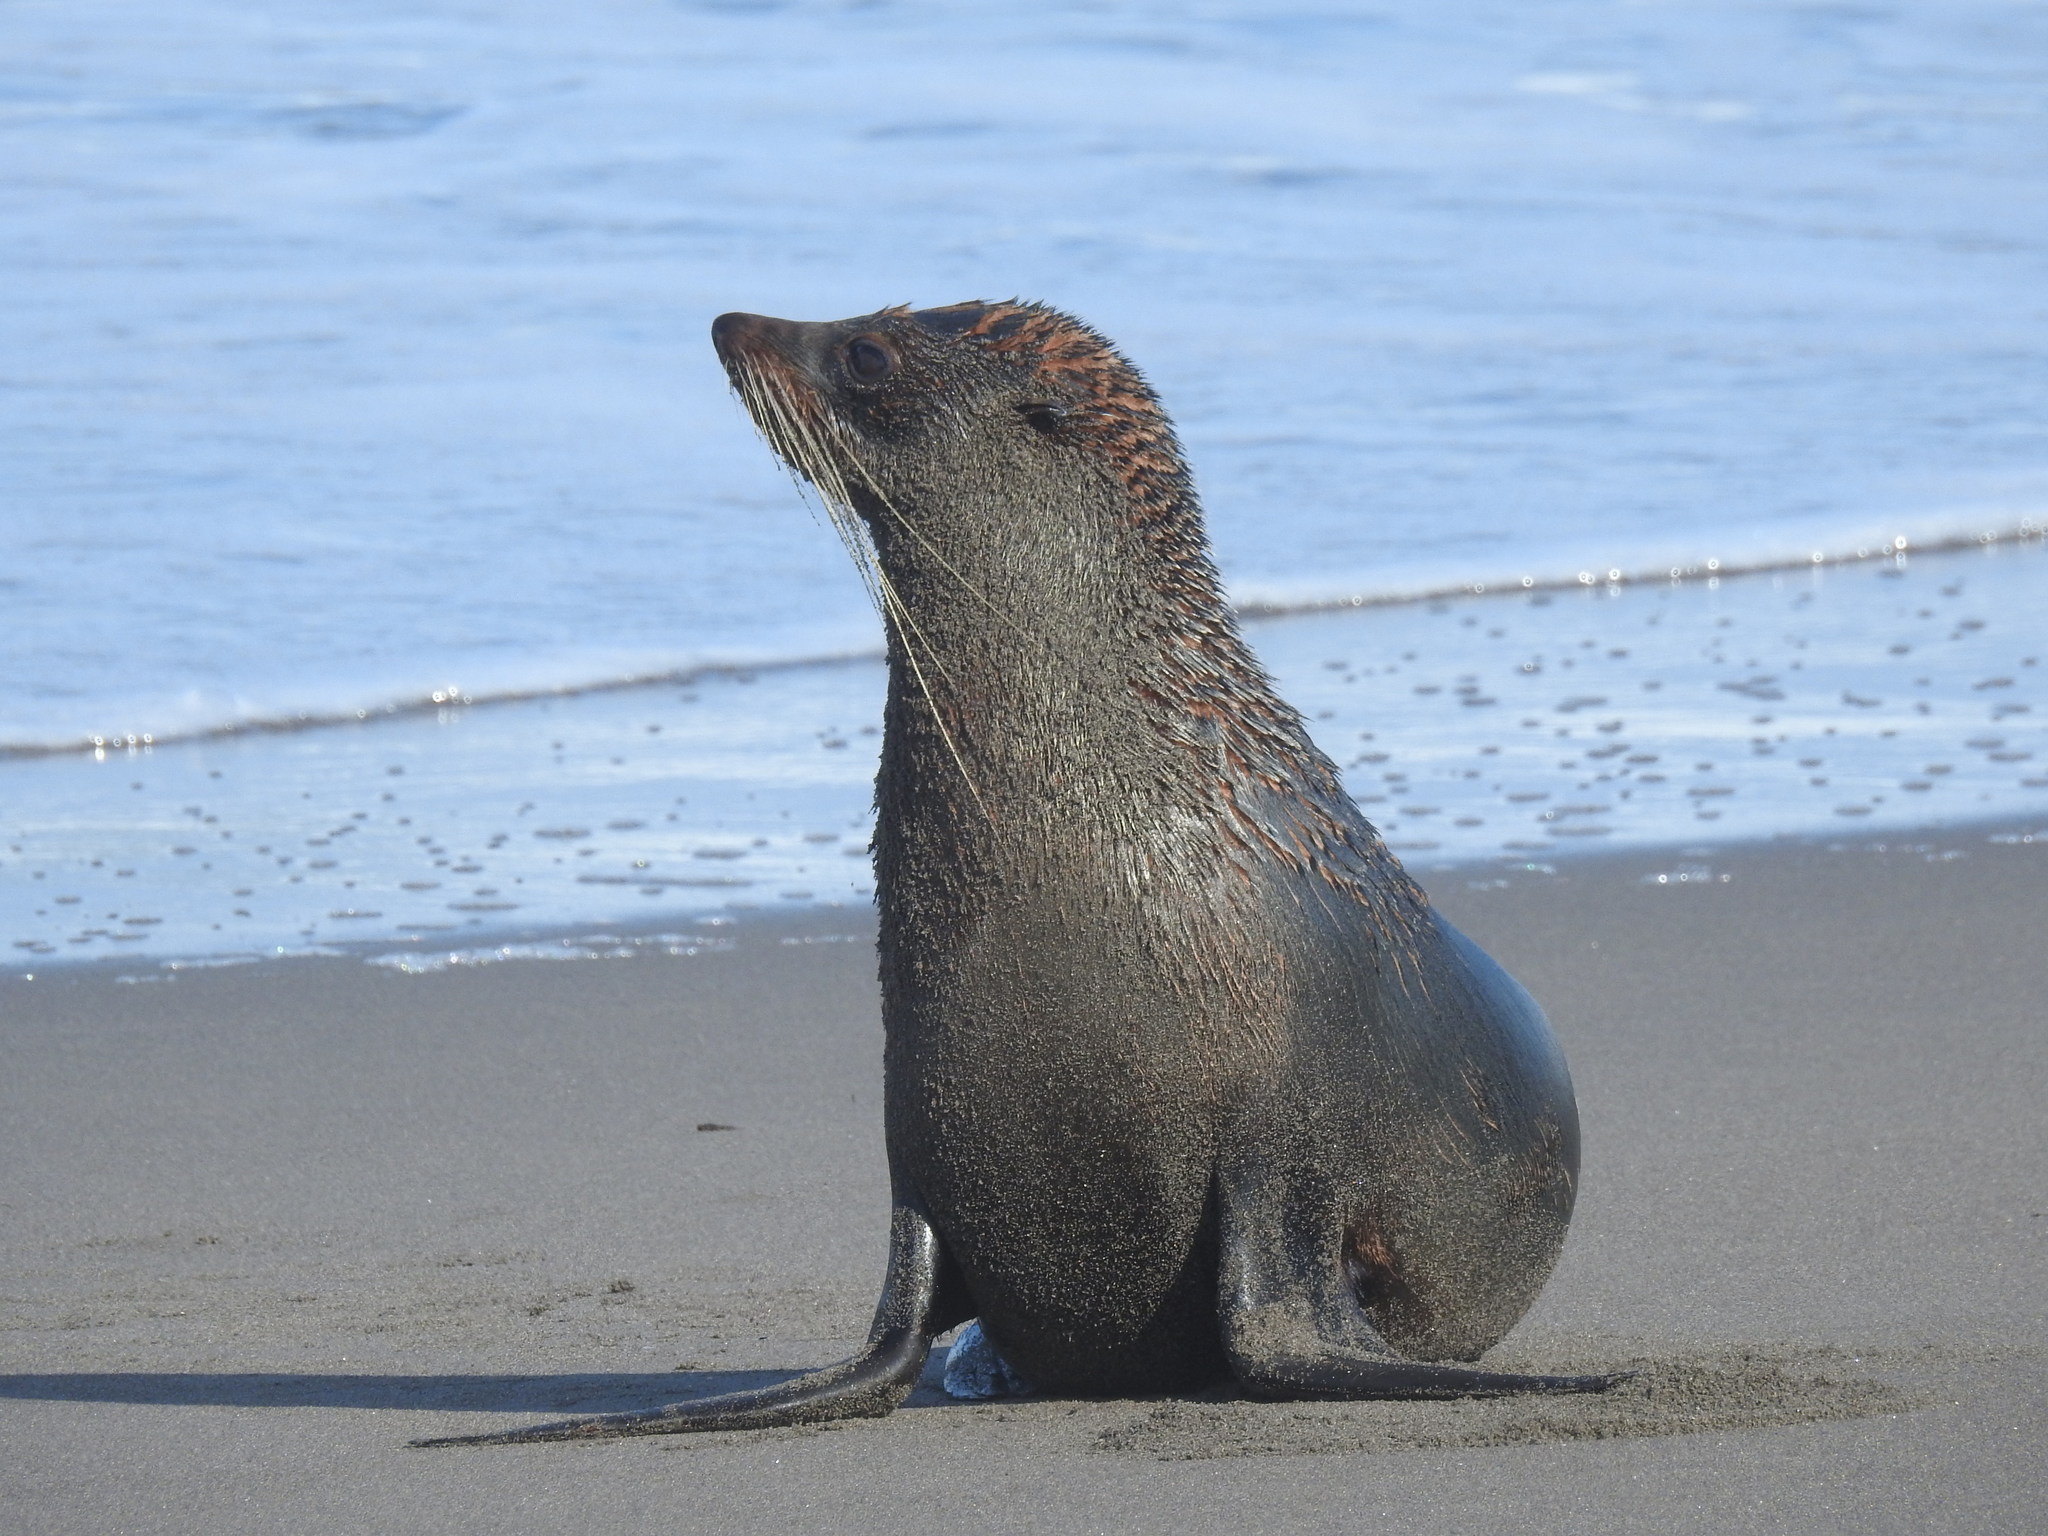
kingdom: Animalia
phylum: Chordata
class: Mammalia
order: Carnivora
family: Otariidae
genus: Arctocephalus
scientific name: Arctocephalus forsteri
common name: New zealand fur seal
